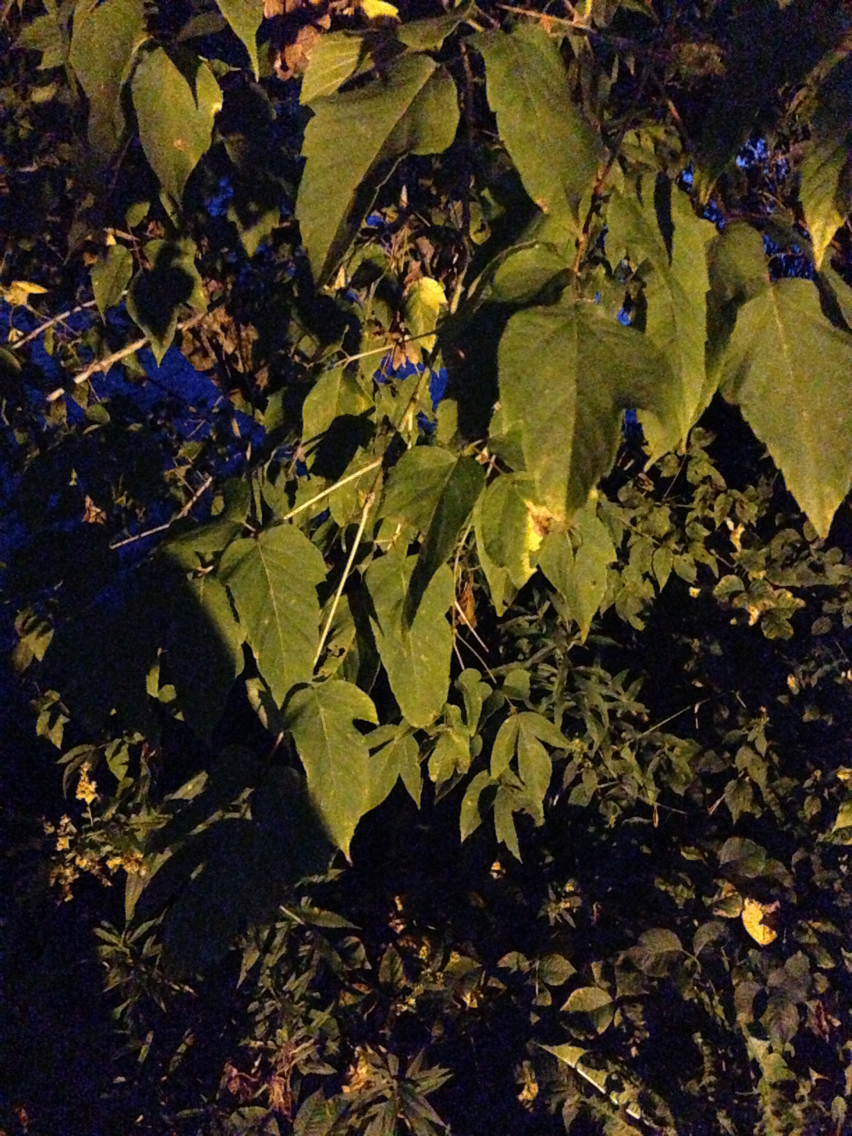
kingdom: Plantae
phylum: Tracheophyta
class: Magnoliopsida
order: Sapindales
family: Sapindaceae
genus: Acer
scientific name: Acer negundo
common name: Ashleaf maple
